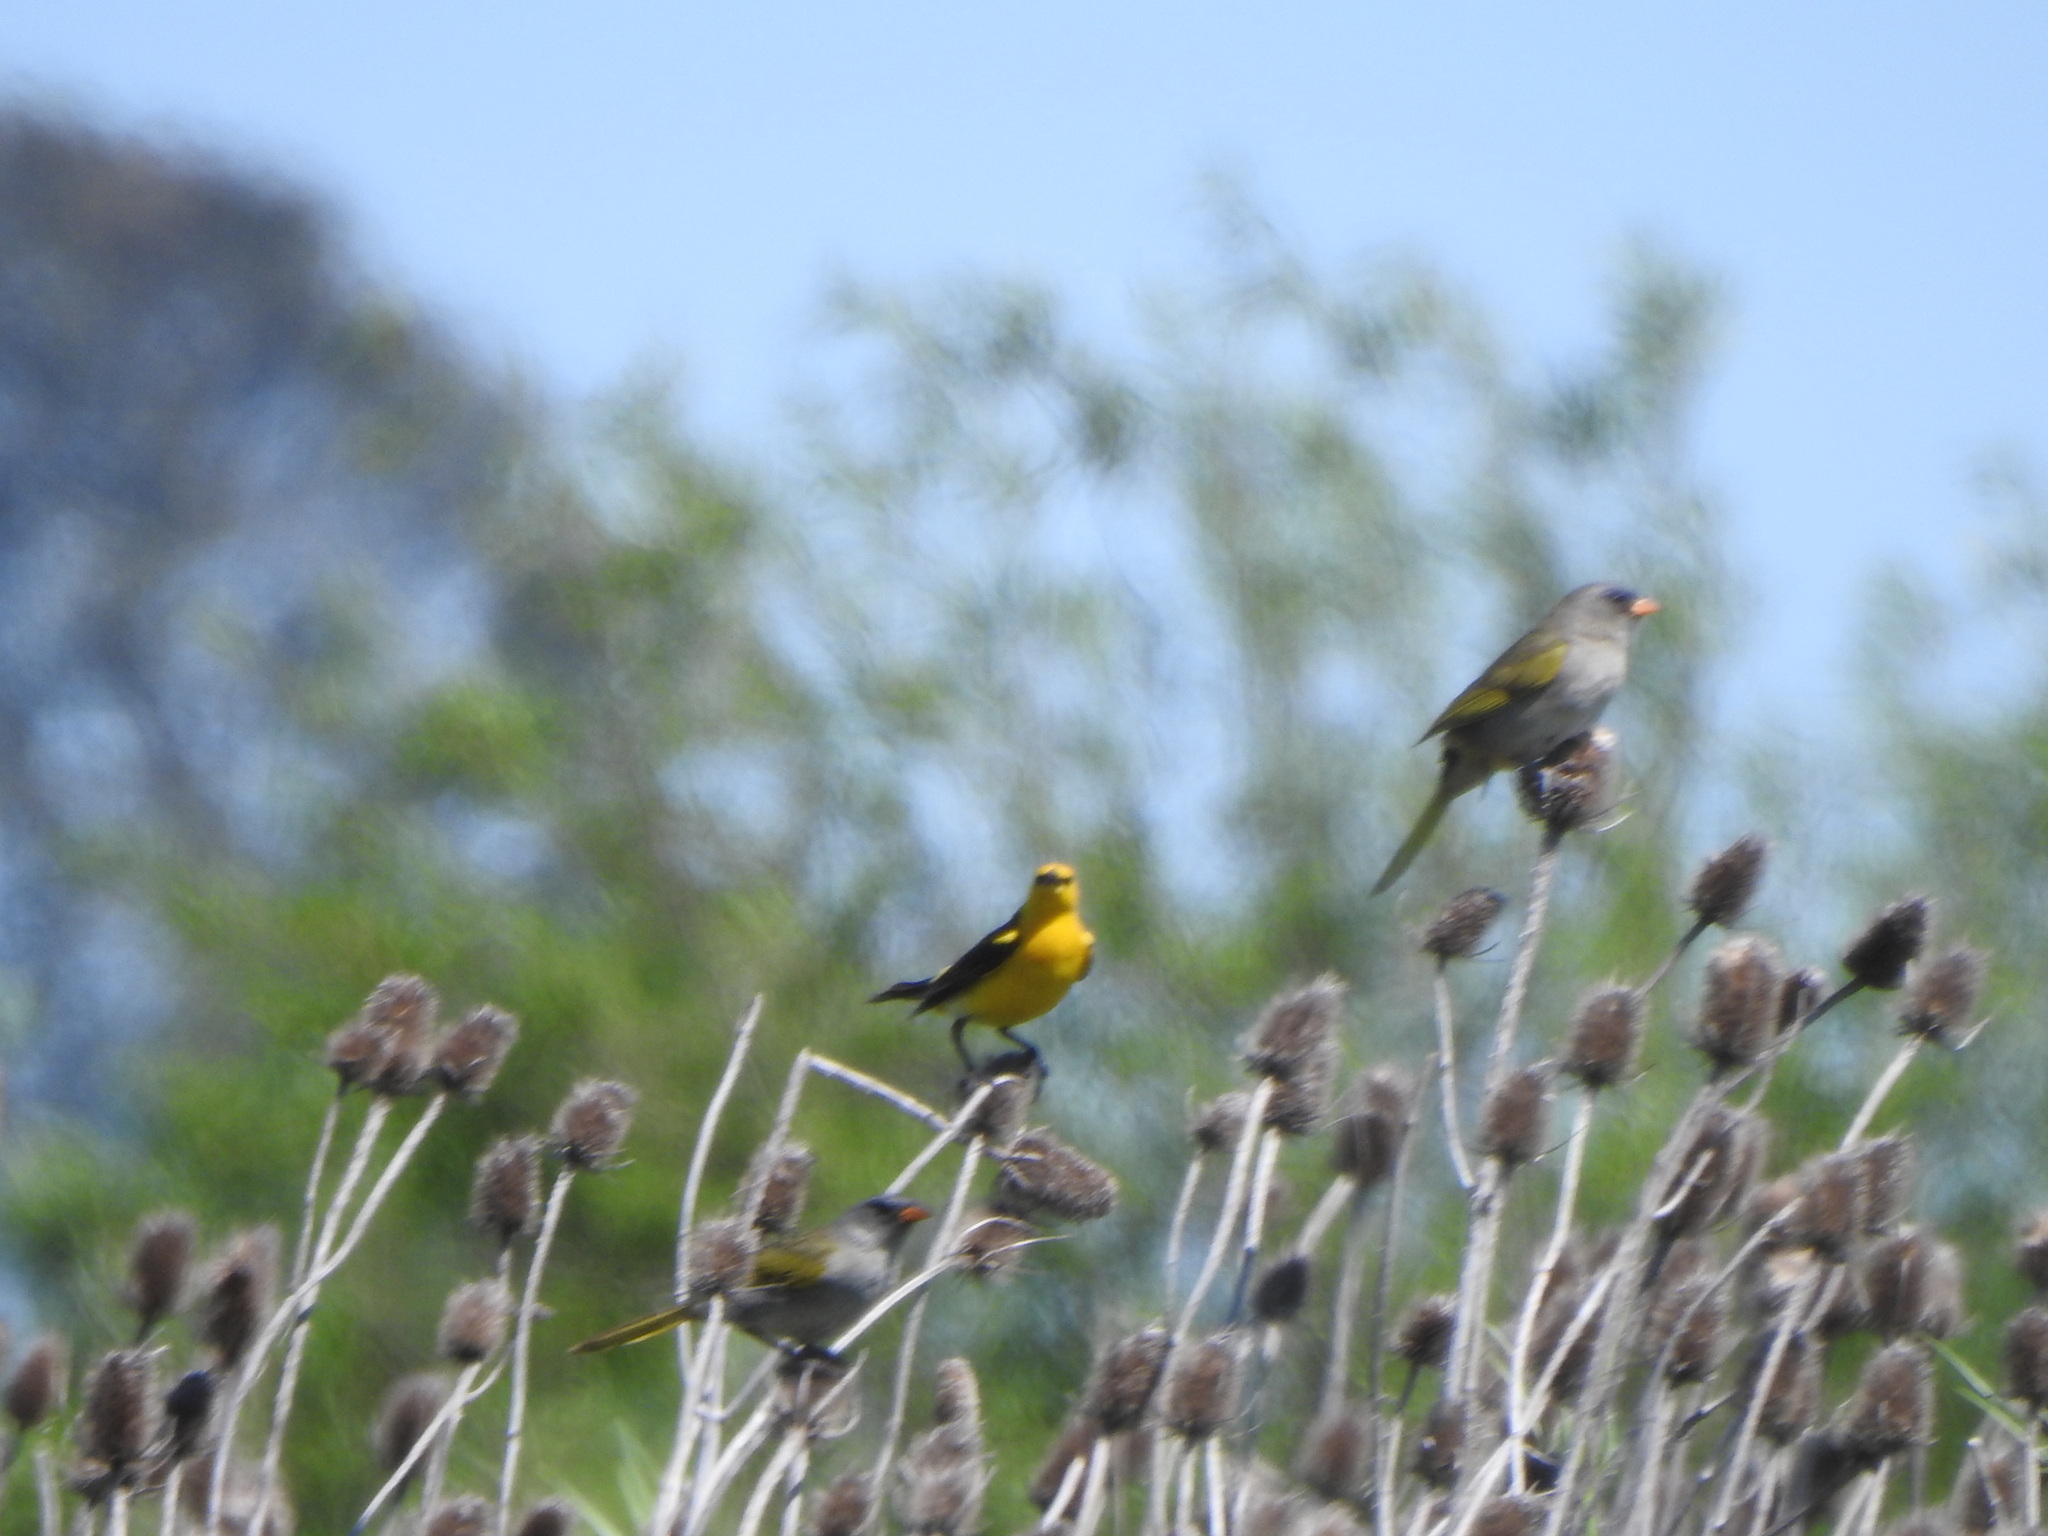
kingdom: Animalia
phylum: Chordata
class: Aves
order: Passeriformes
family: Icteridae
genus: Xanthopsar
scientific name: Xanthopsar flavus
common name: Saffron-cowled blackbird
